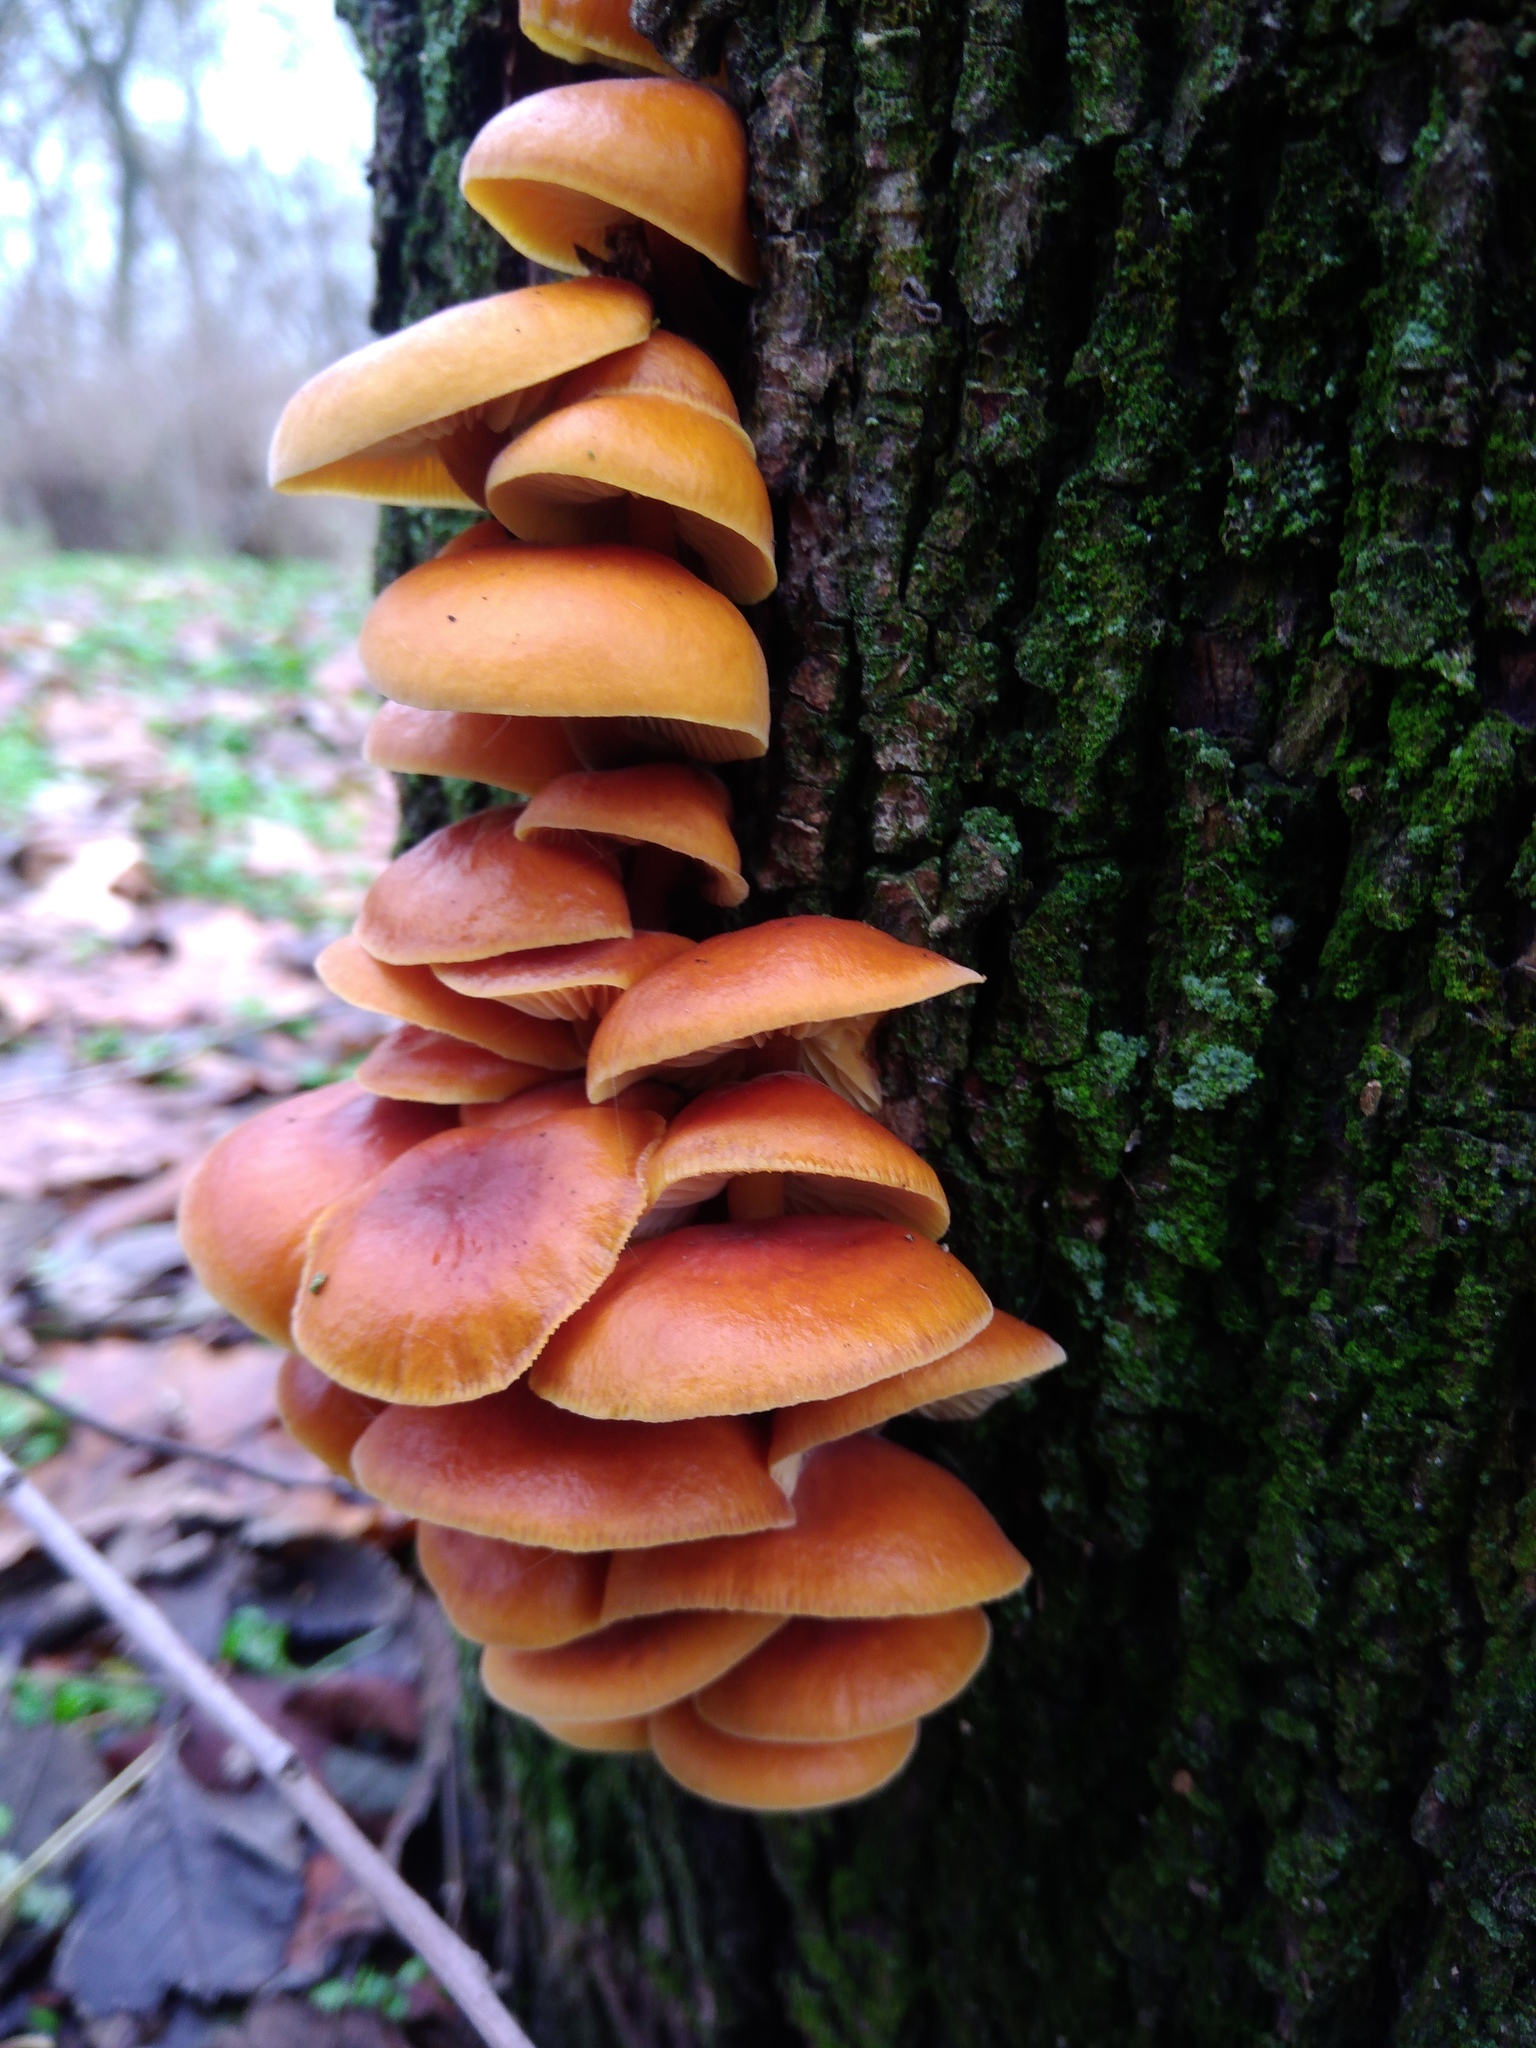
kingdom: Fungi
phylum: Basidiomycota
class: Agaricomycetes
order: Agaricales
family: Physalacriaceae
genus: Flammulina
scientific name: Flammulina
